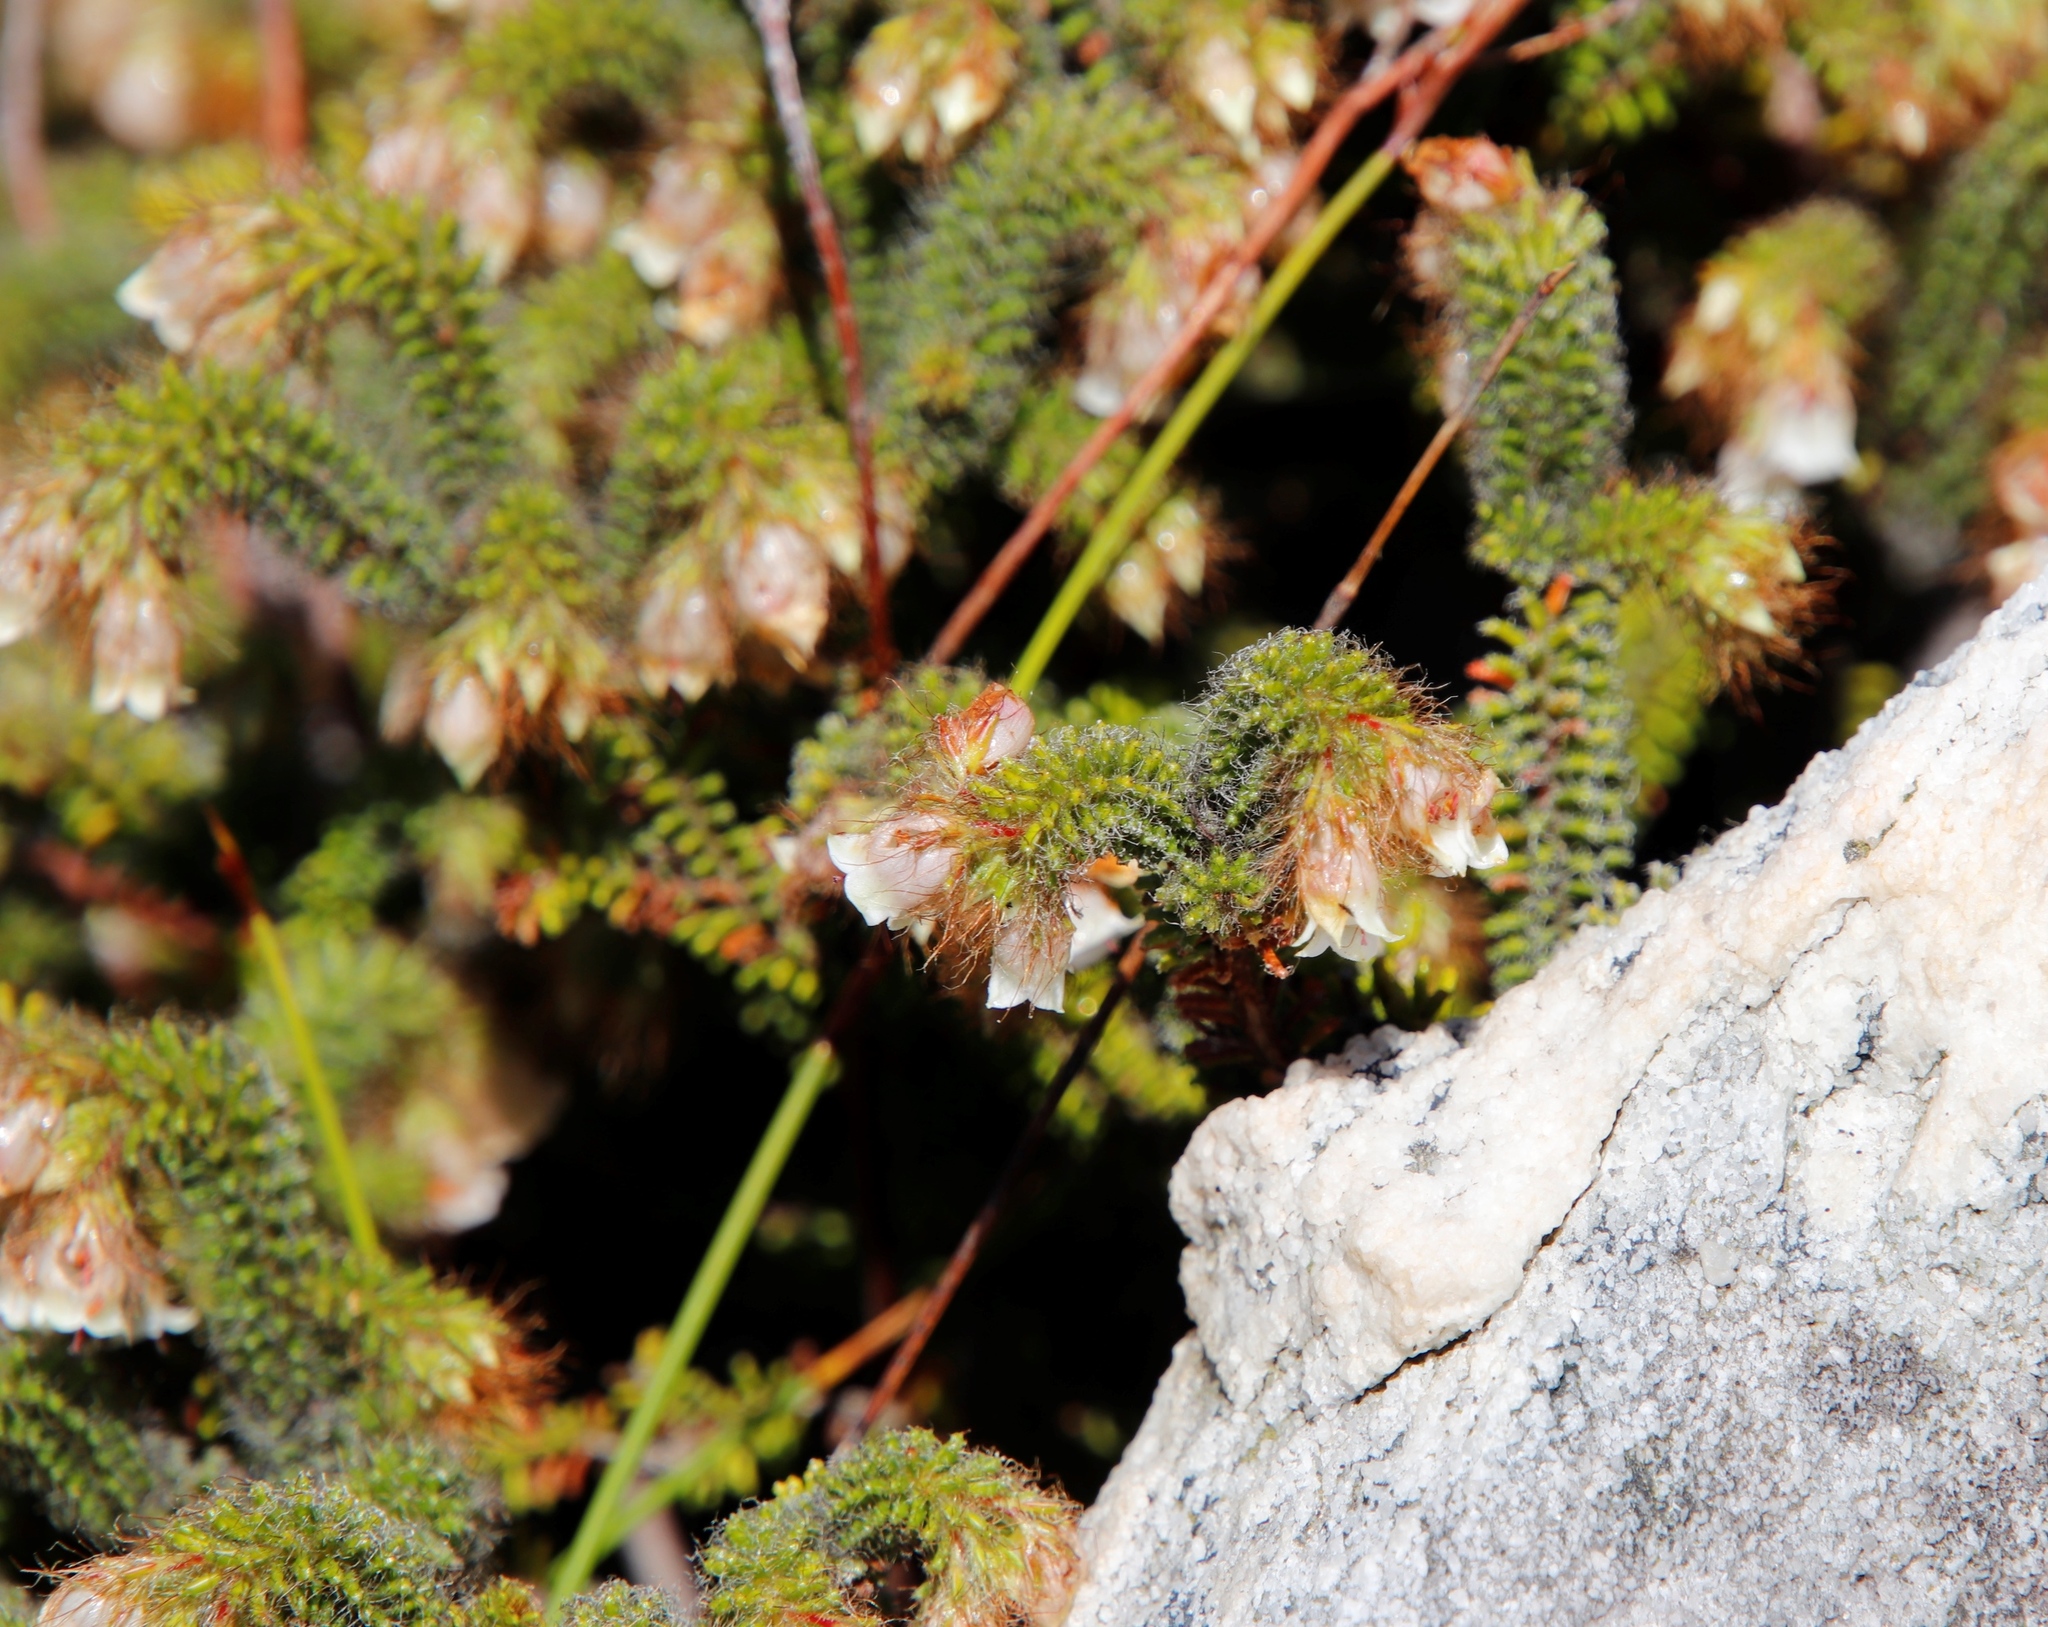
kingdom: Plantae
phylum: Tracheophyta
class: Magnoliopsida
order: Ericales
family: Ericaceae
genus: Erica
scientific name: Erica cygnea
